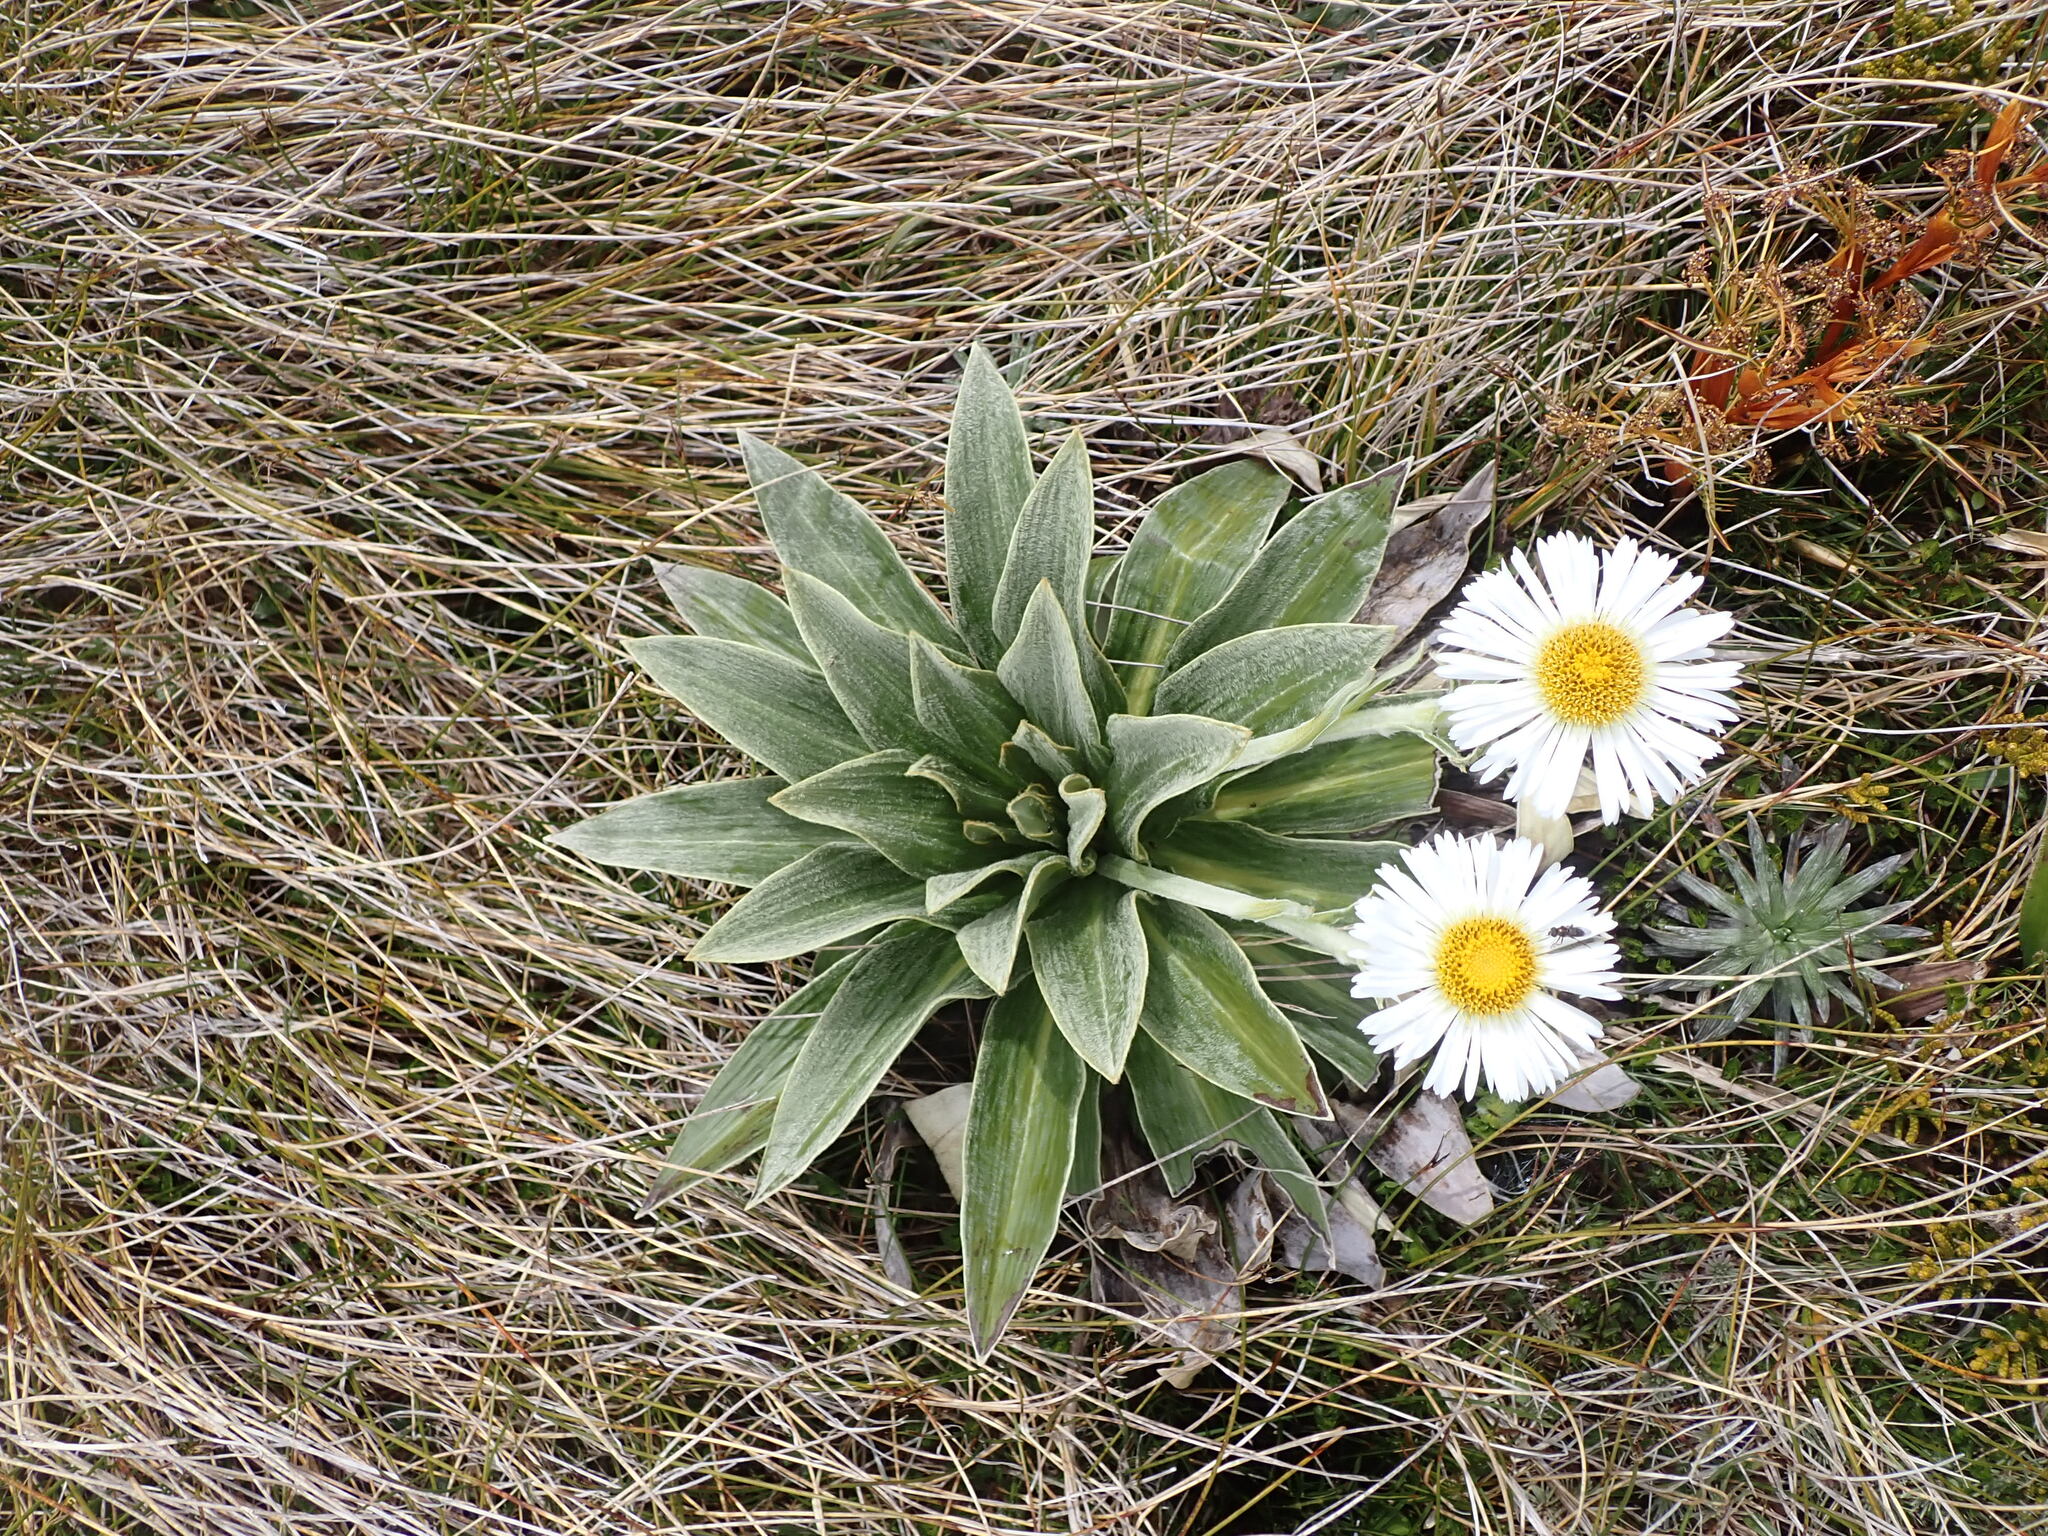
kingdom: Plantae
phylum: Tracheophyta
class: Magnoliopsida
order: Asterales
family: Asteraceae
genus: Celmisia
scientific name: Celmisia verbascifolia
